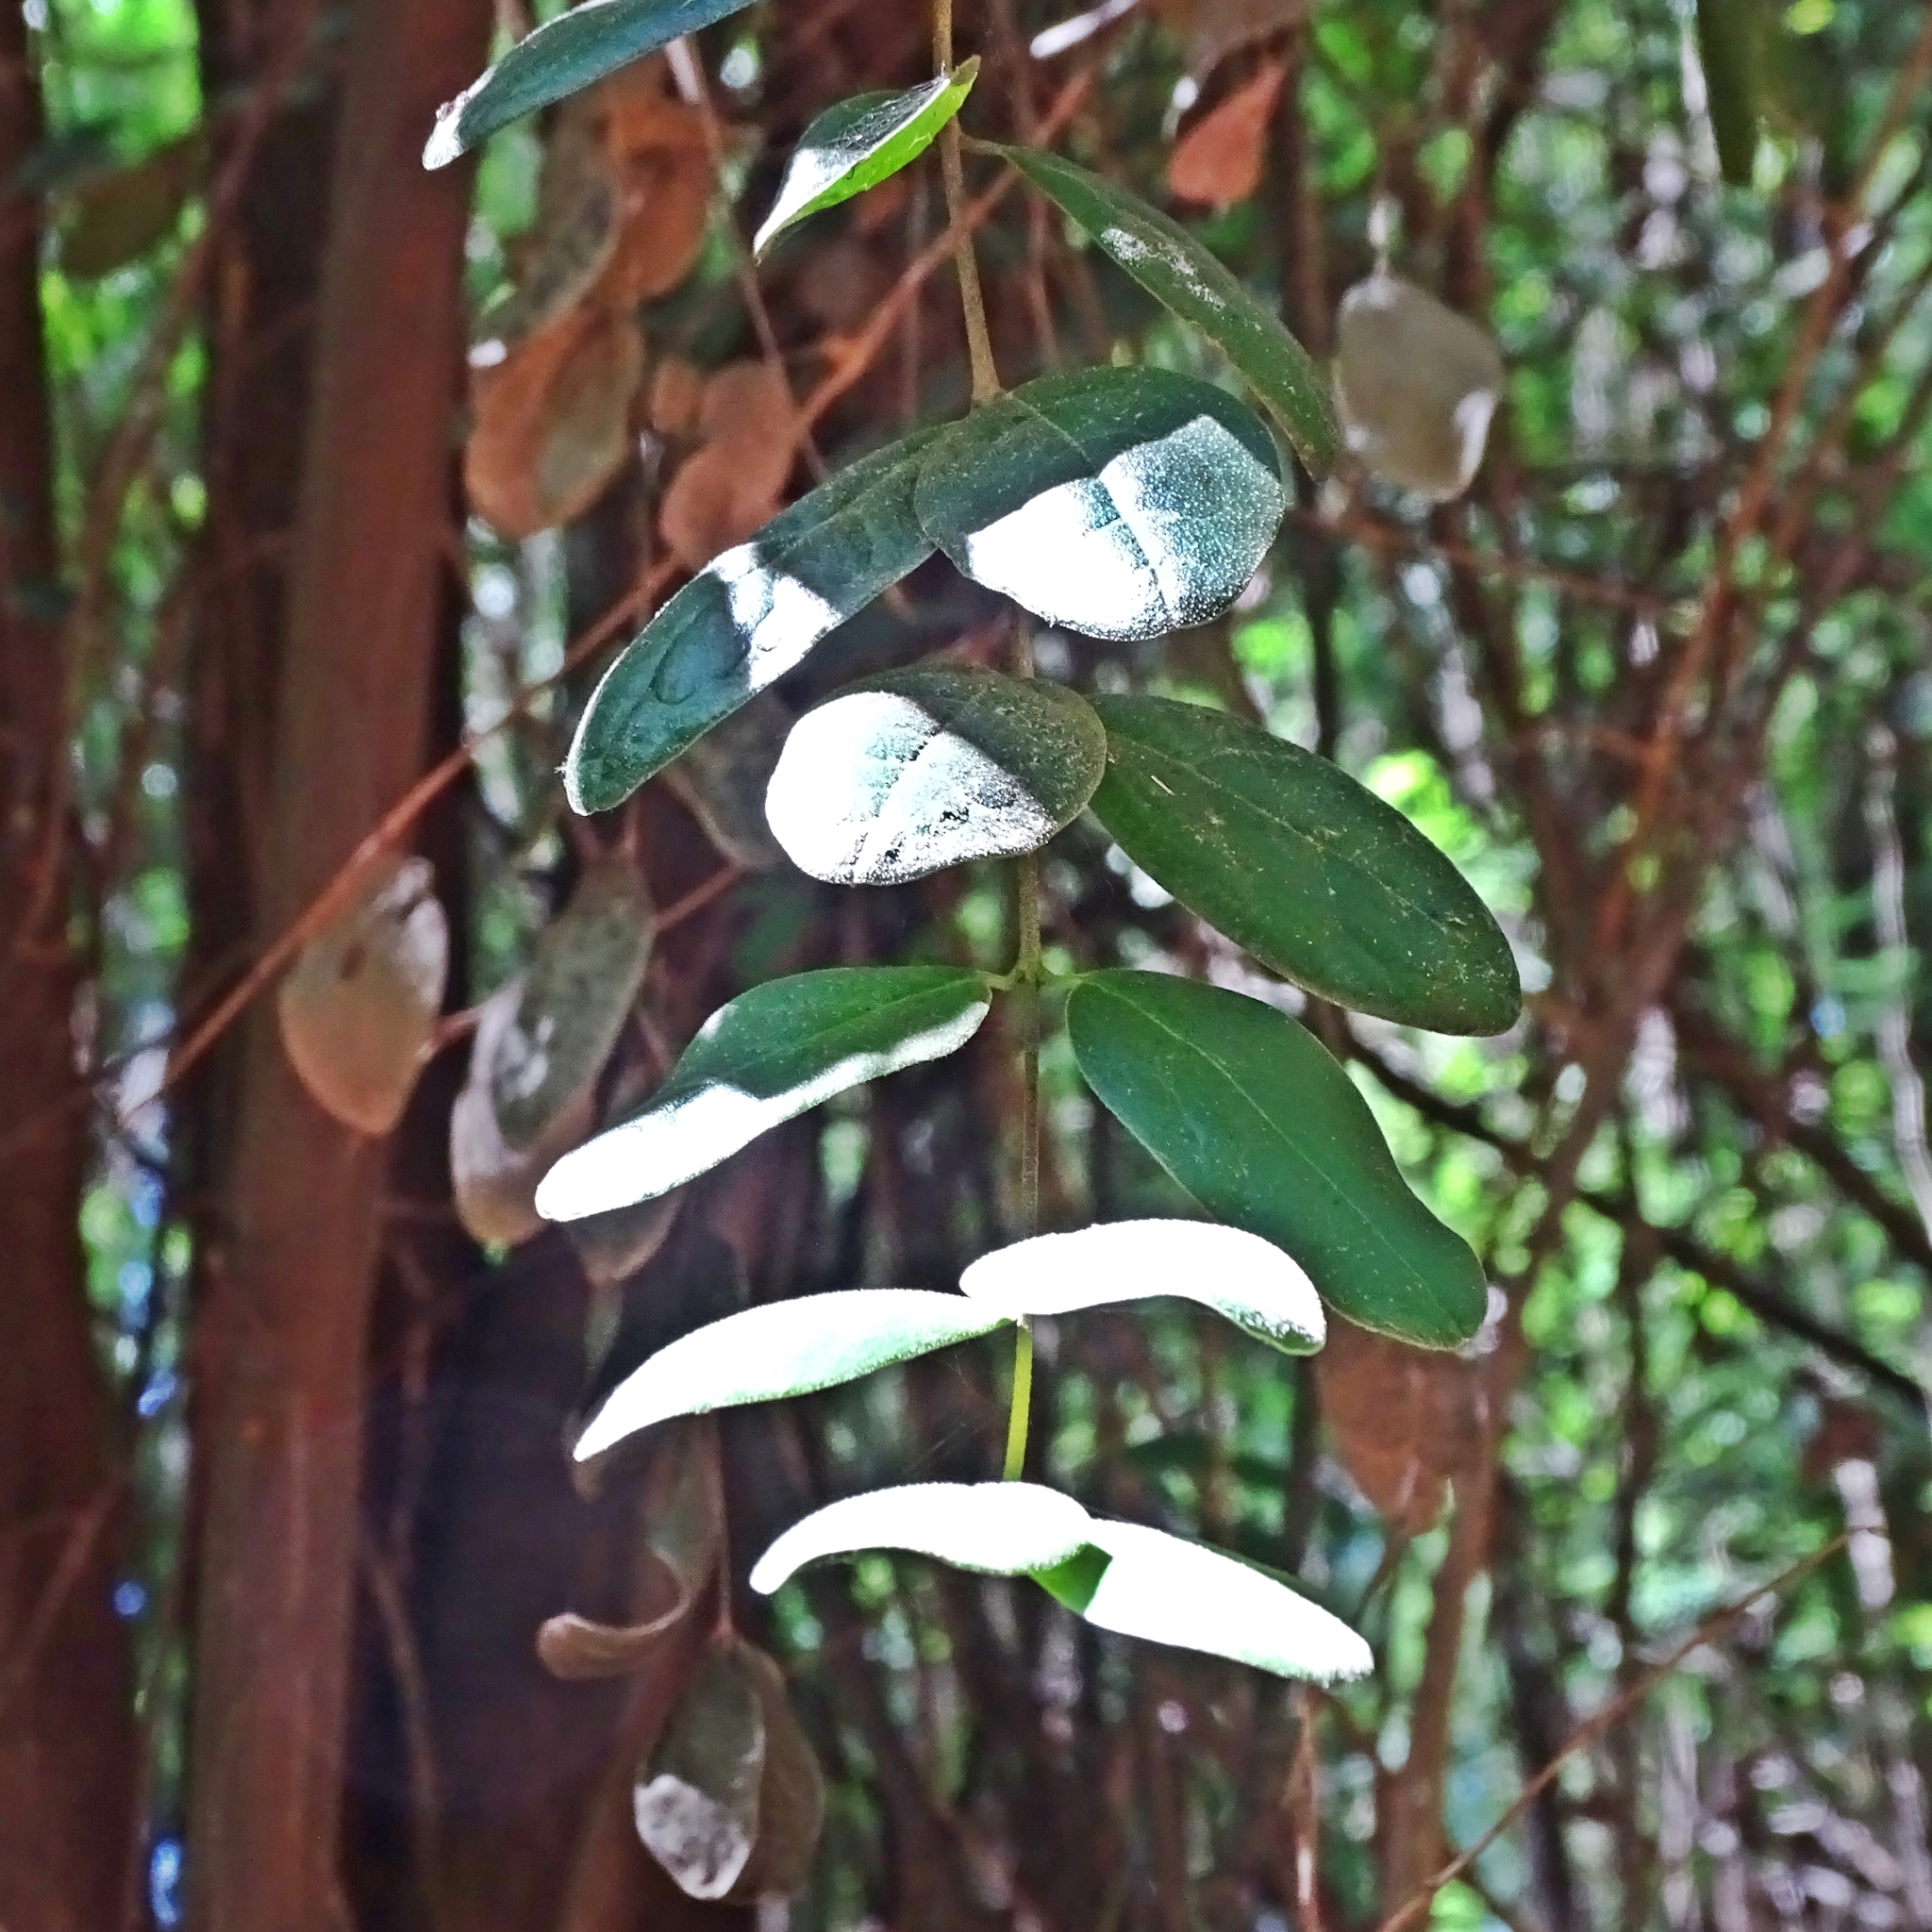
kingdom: Plantae
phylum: Tracheophyta
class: Magnoliopsida
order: Laurales
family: Monimiaceae
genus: Peumus
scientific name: Peumus boldus
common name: Boldo
